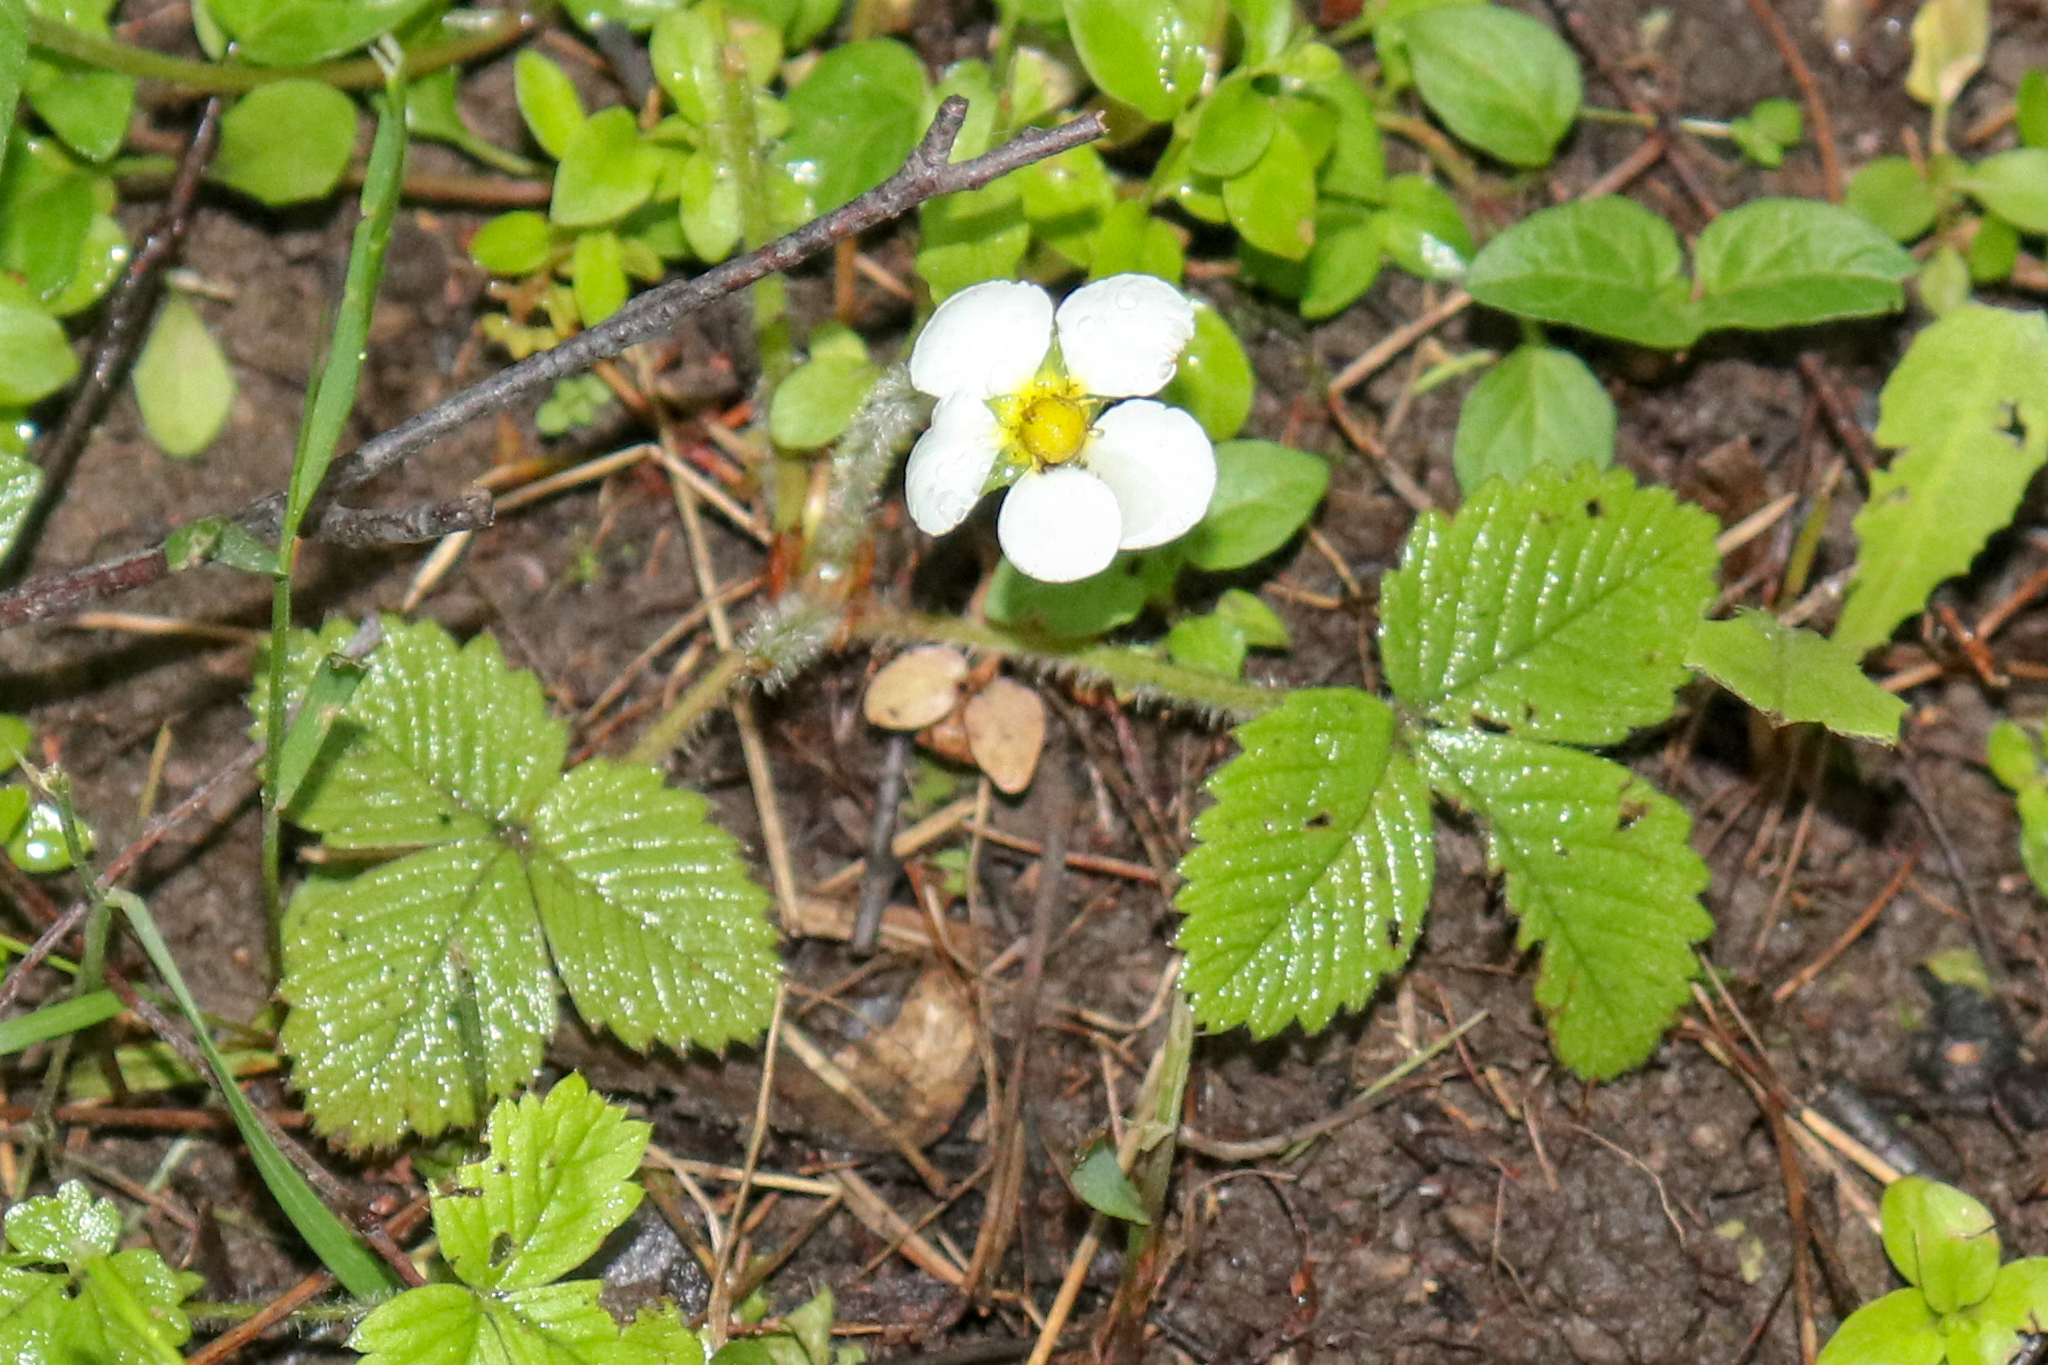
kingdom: Plantae
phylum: Tracheophyta
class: Magnoliopsida
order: Rosales
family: Rosaceae
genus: Fragaria
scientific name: Fragaria moschata
